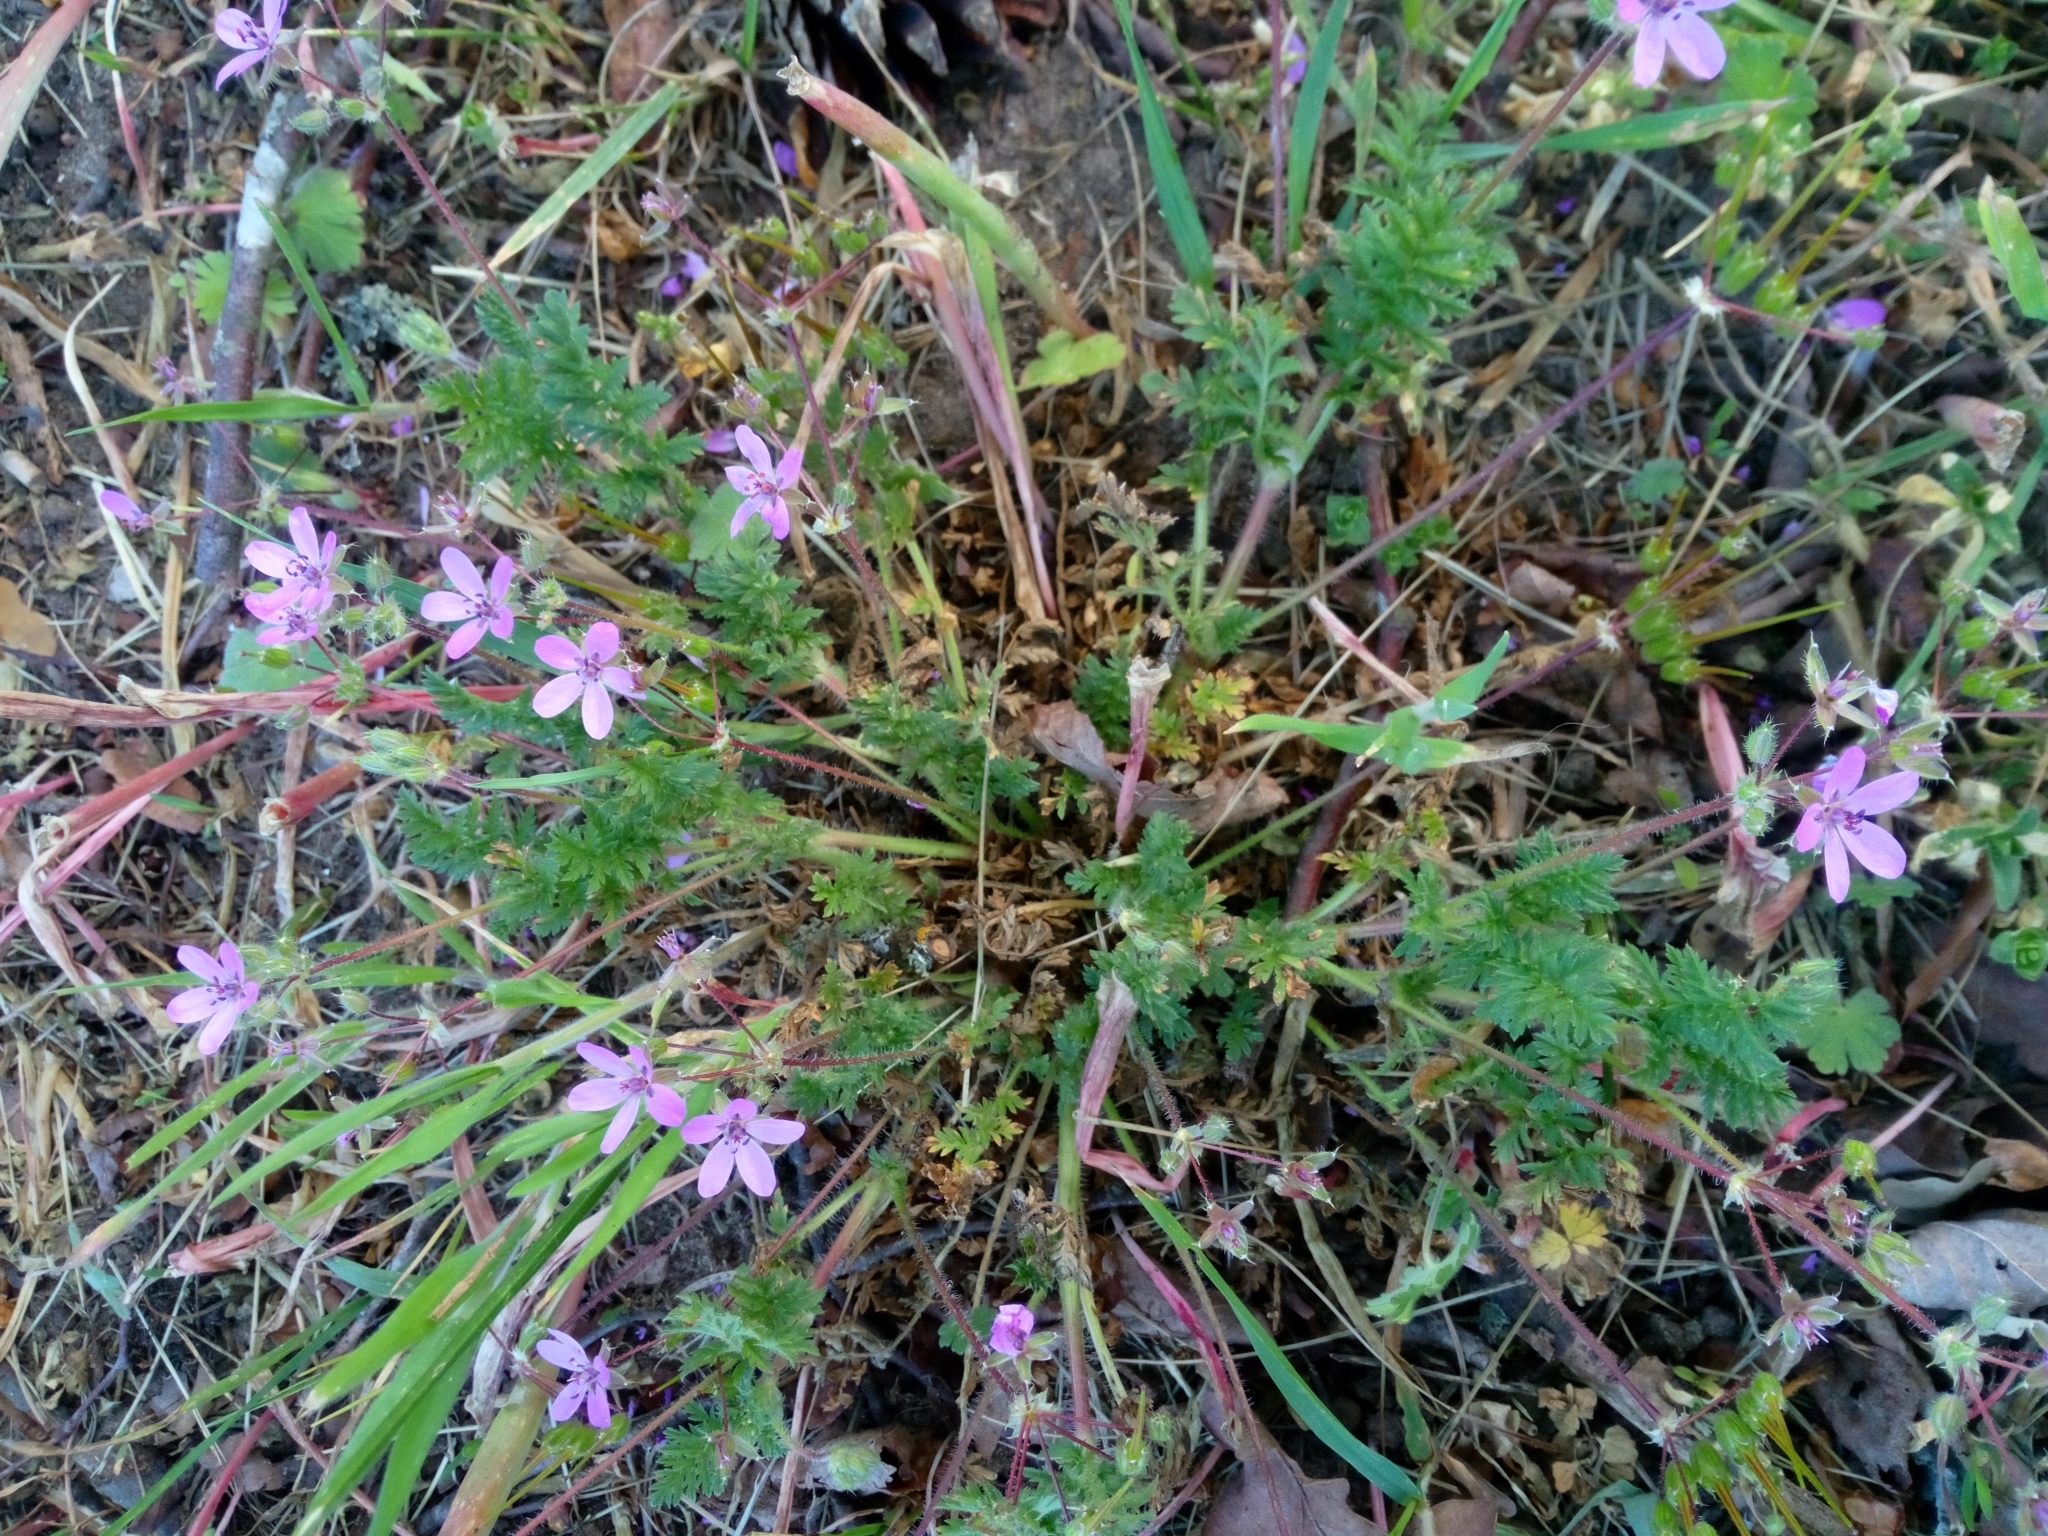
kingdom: Plantae
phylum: Tracheophyta
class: Magnoliopsida
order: Geraniales
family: Geraniaceae
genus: Erodium
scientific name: Erodium cicutarium
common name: Common stork's-bill
